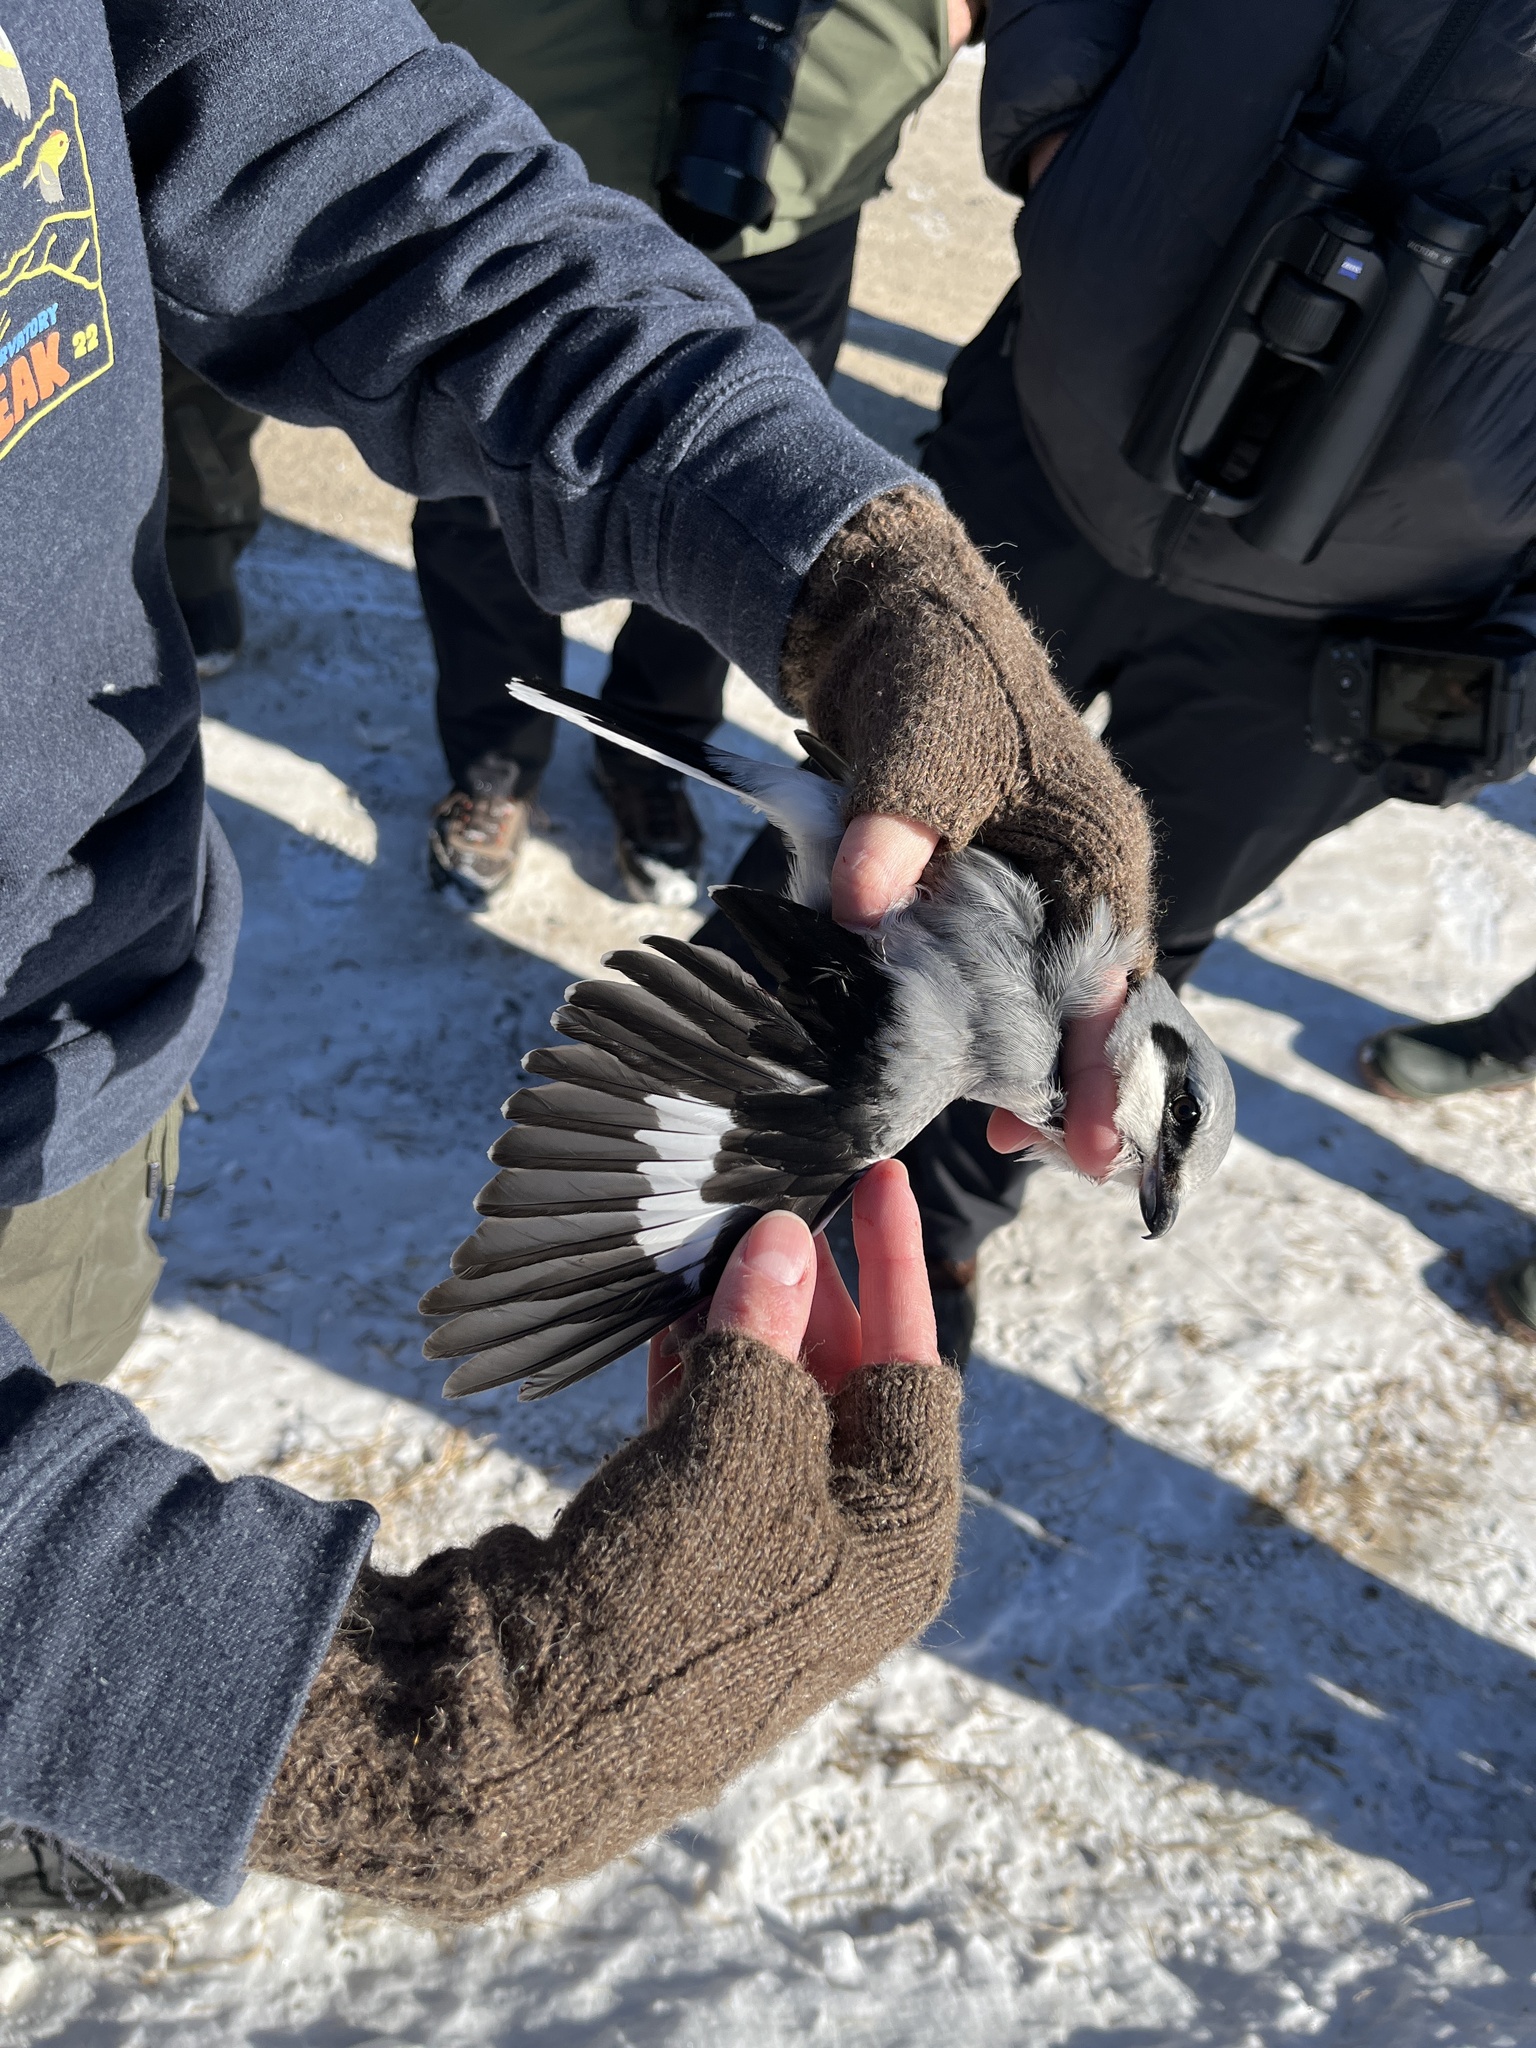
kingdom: Animalia
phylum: Chordata
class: Aves
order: Passeriformes
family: Laniidae
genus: Lanius
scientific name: Lanius borealis
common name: Northern shrike
